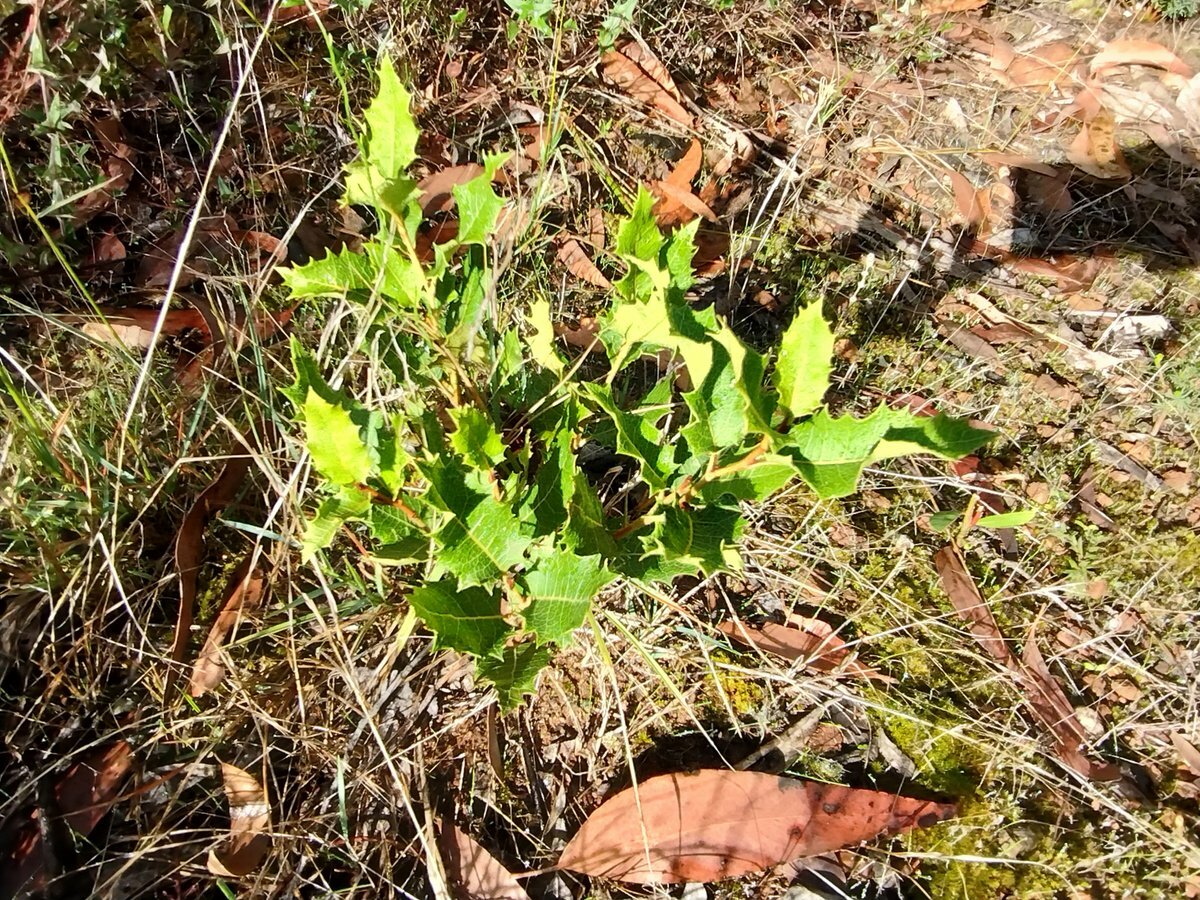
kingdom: Plantae
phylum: Tracheophyta
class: Magnoliopsida
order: Proteales
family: Proteaceae
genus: Lomatia
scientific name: Lomatia ilicifolia
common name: Native-holly
